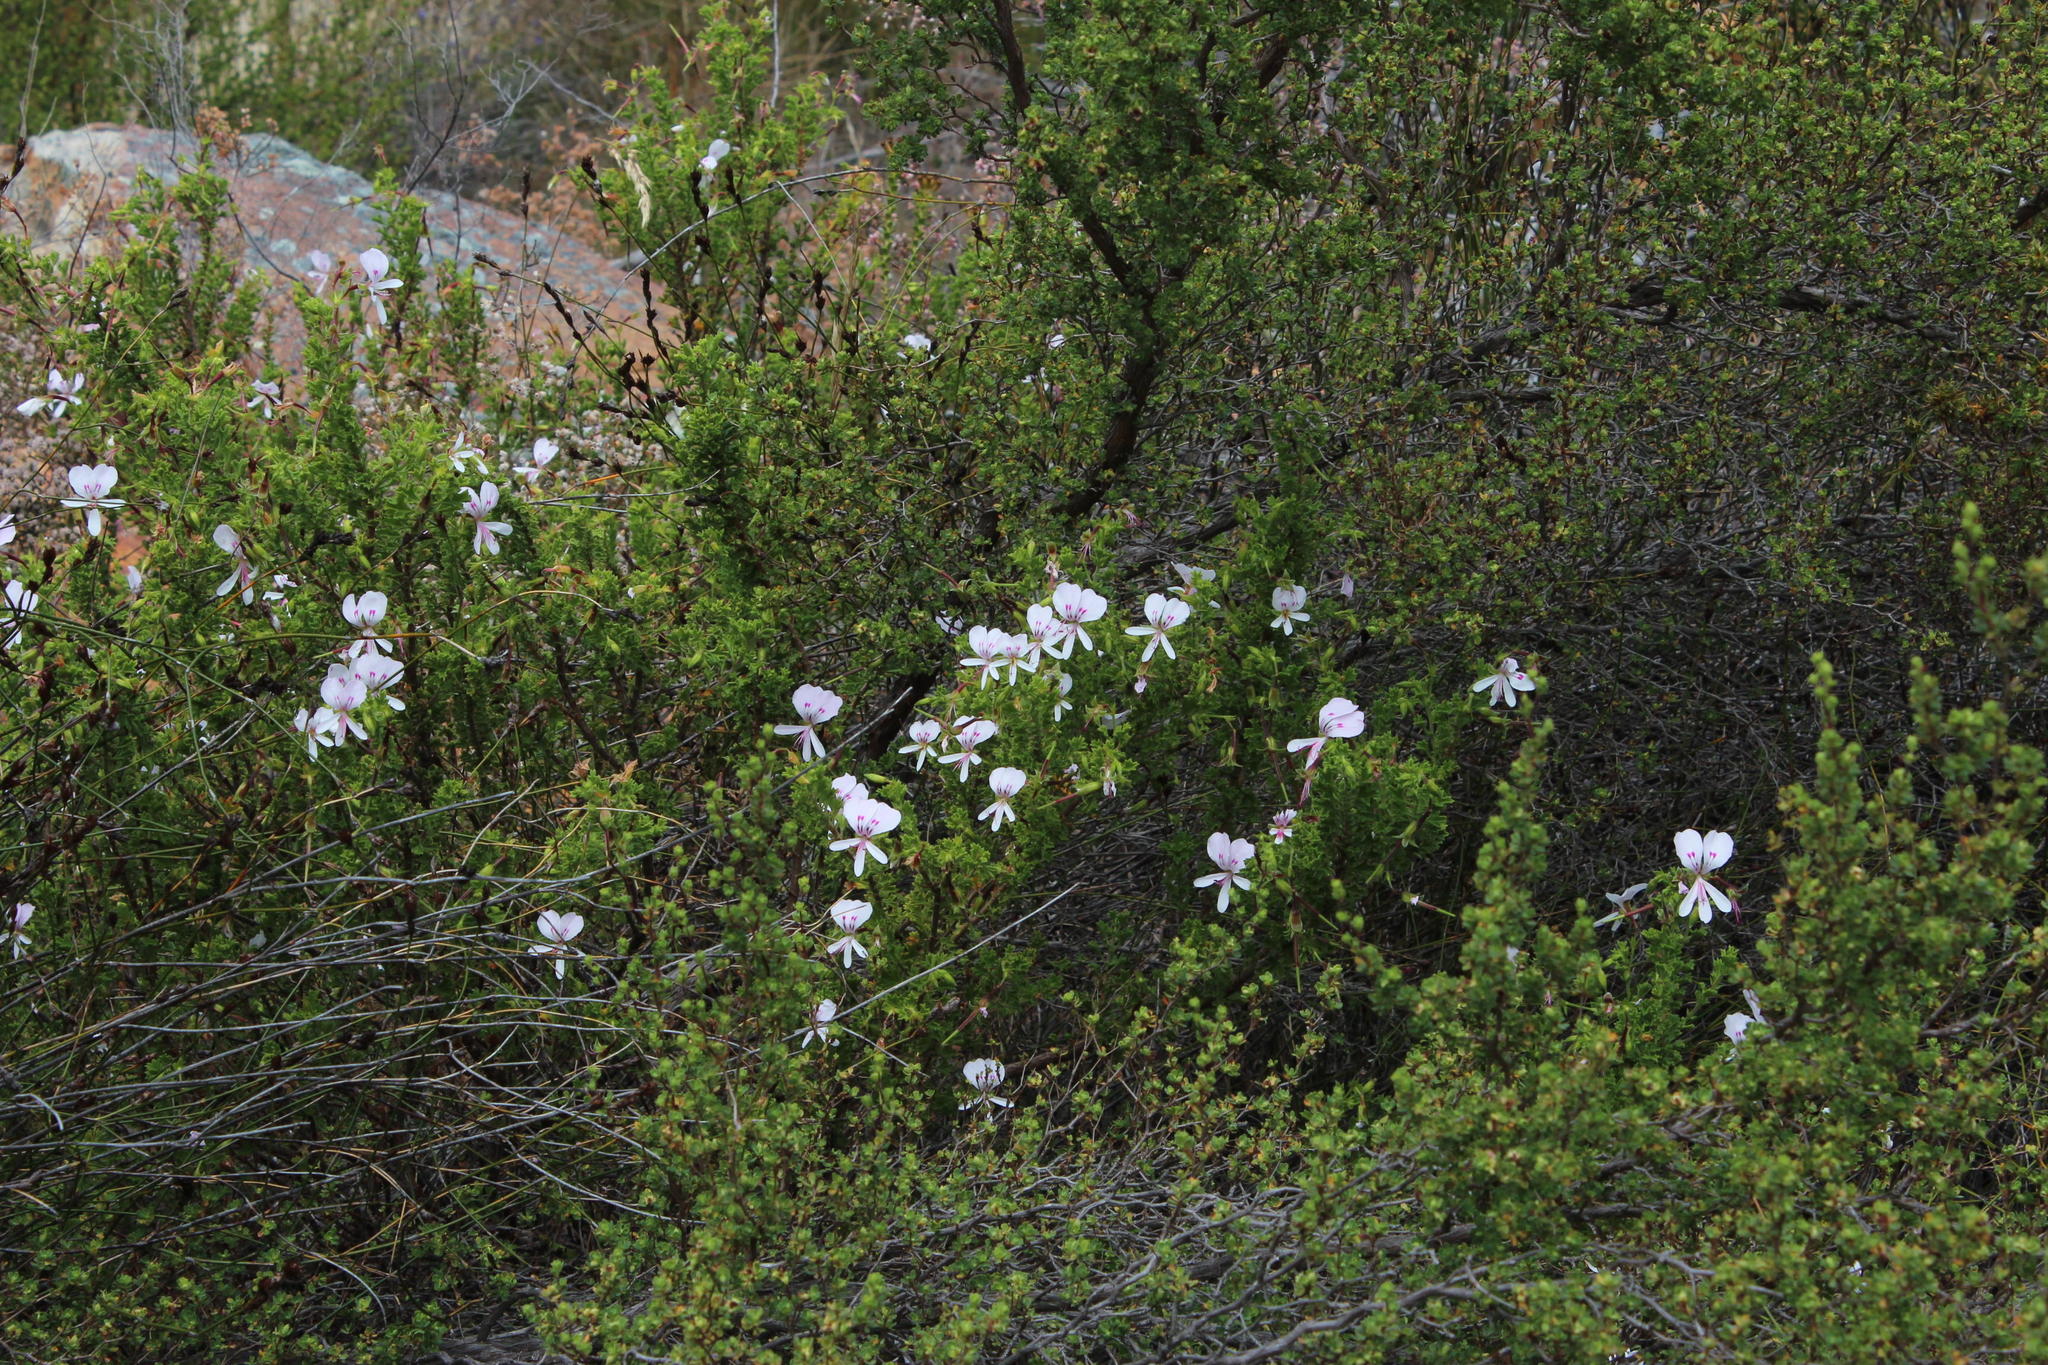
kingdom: Plantae
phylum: Tracheophyta
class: Magnoliopsida
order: Geraniales
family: Geraniaceae
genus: Pelargonium
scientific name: Pelargonium hermaniifolium
